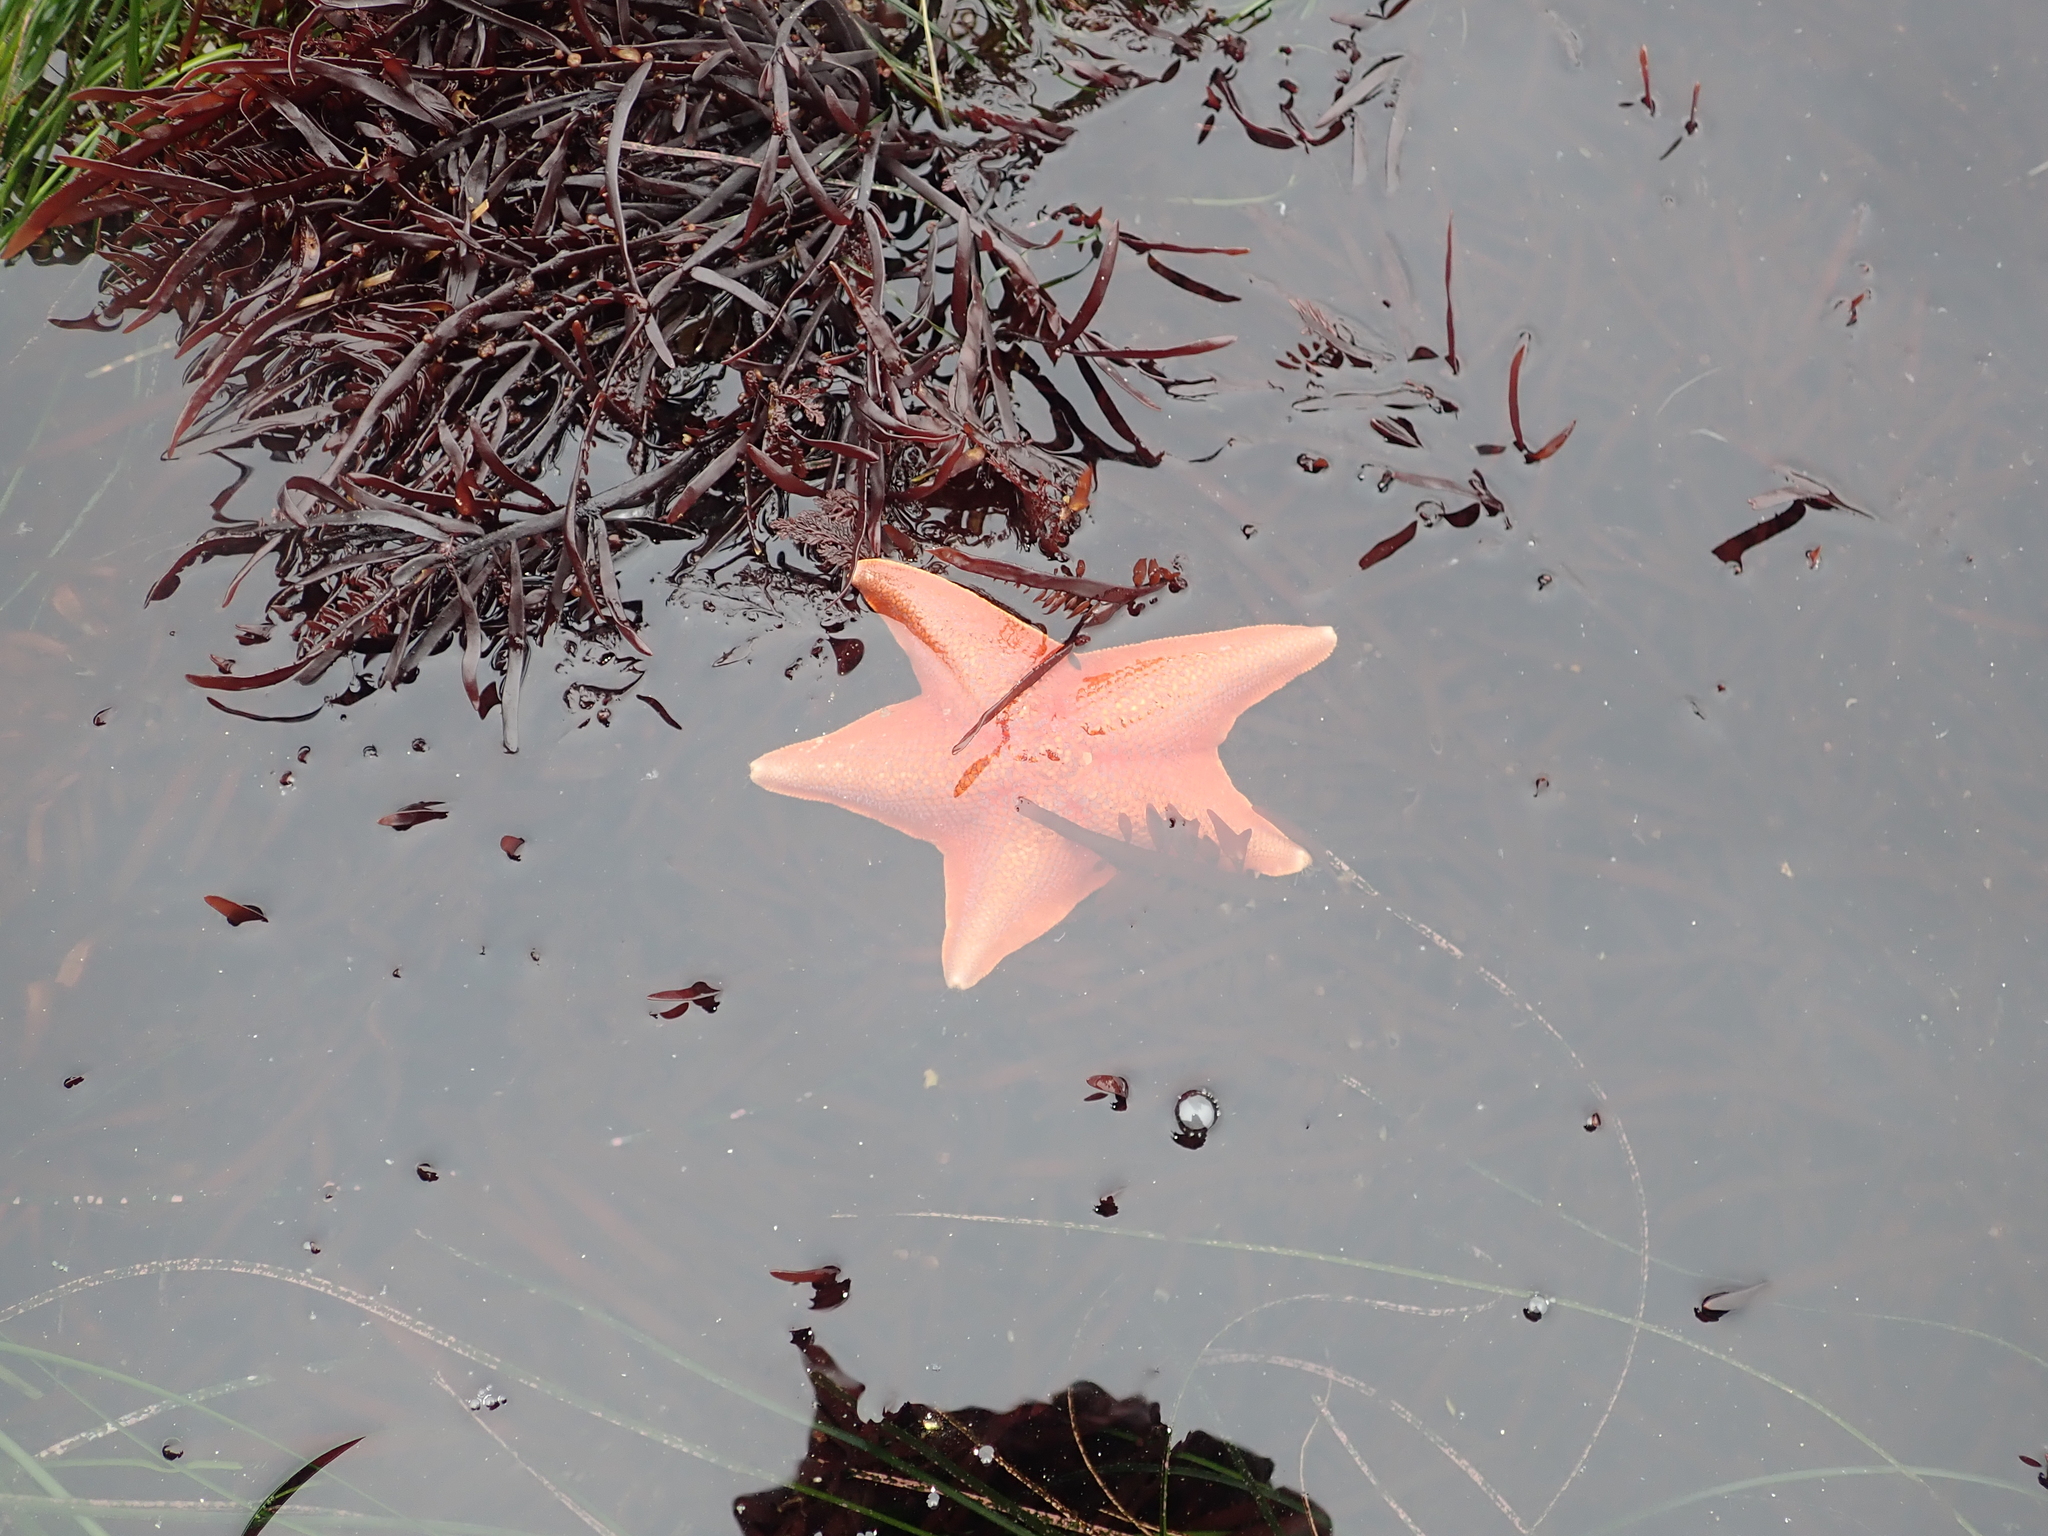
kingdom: Animalia
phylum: Echinodermata
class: Asteroidea
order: Valvatida
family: Asterinidae
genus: Patiria
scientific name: Patiria miniata
